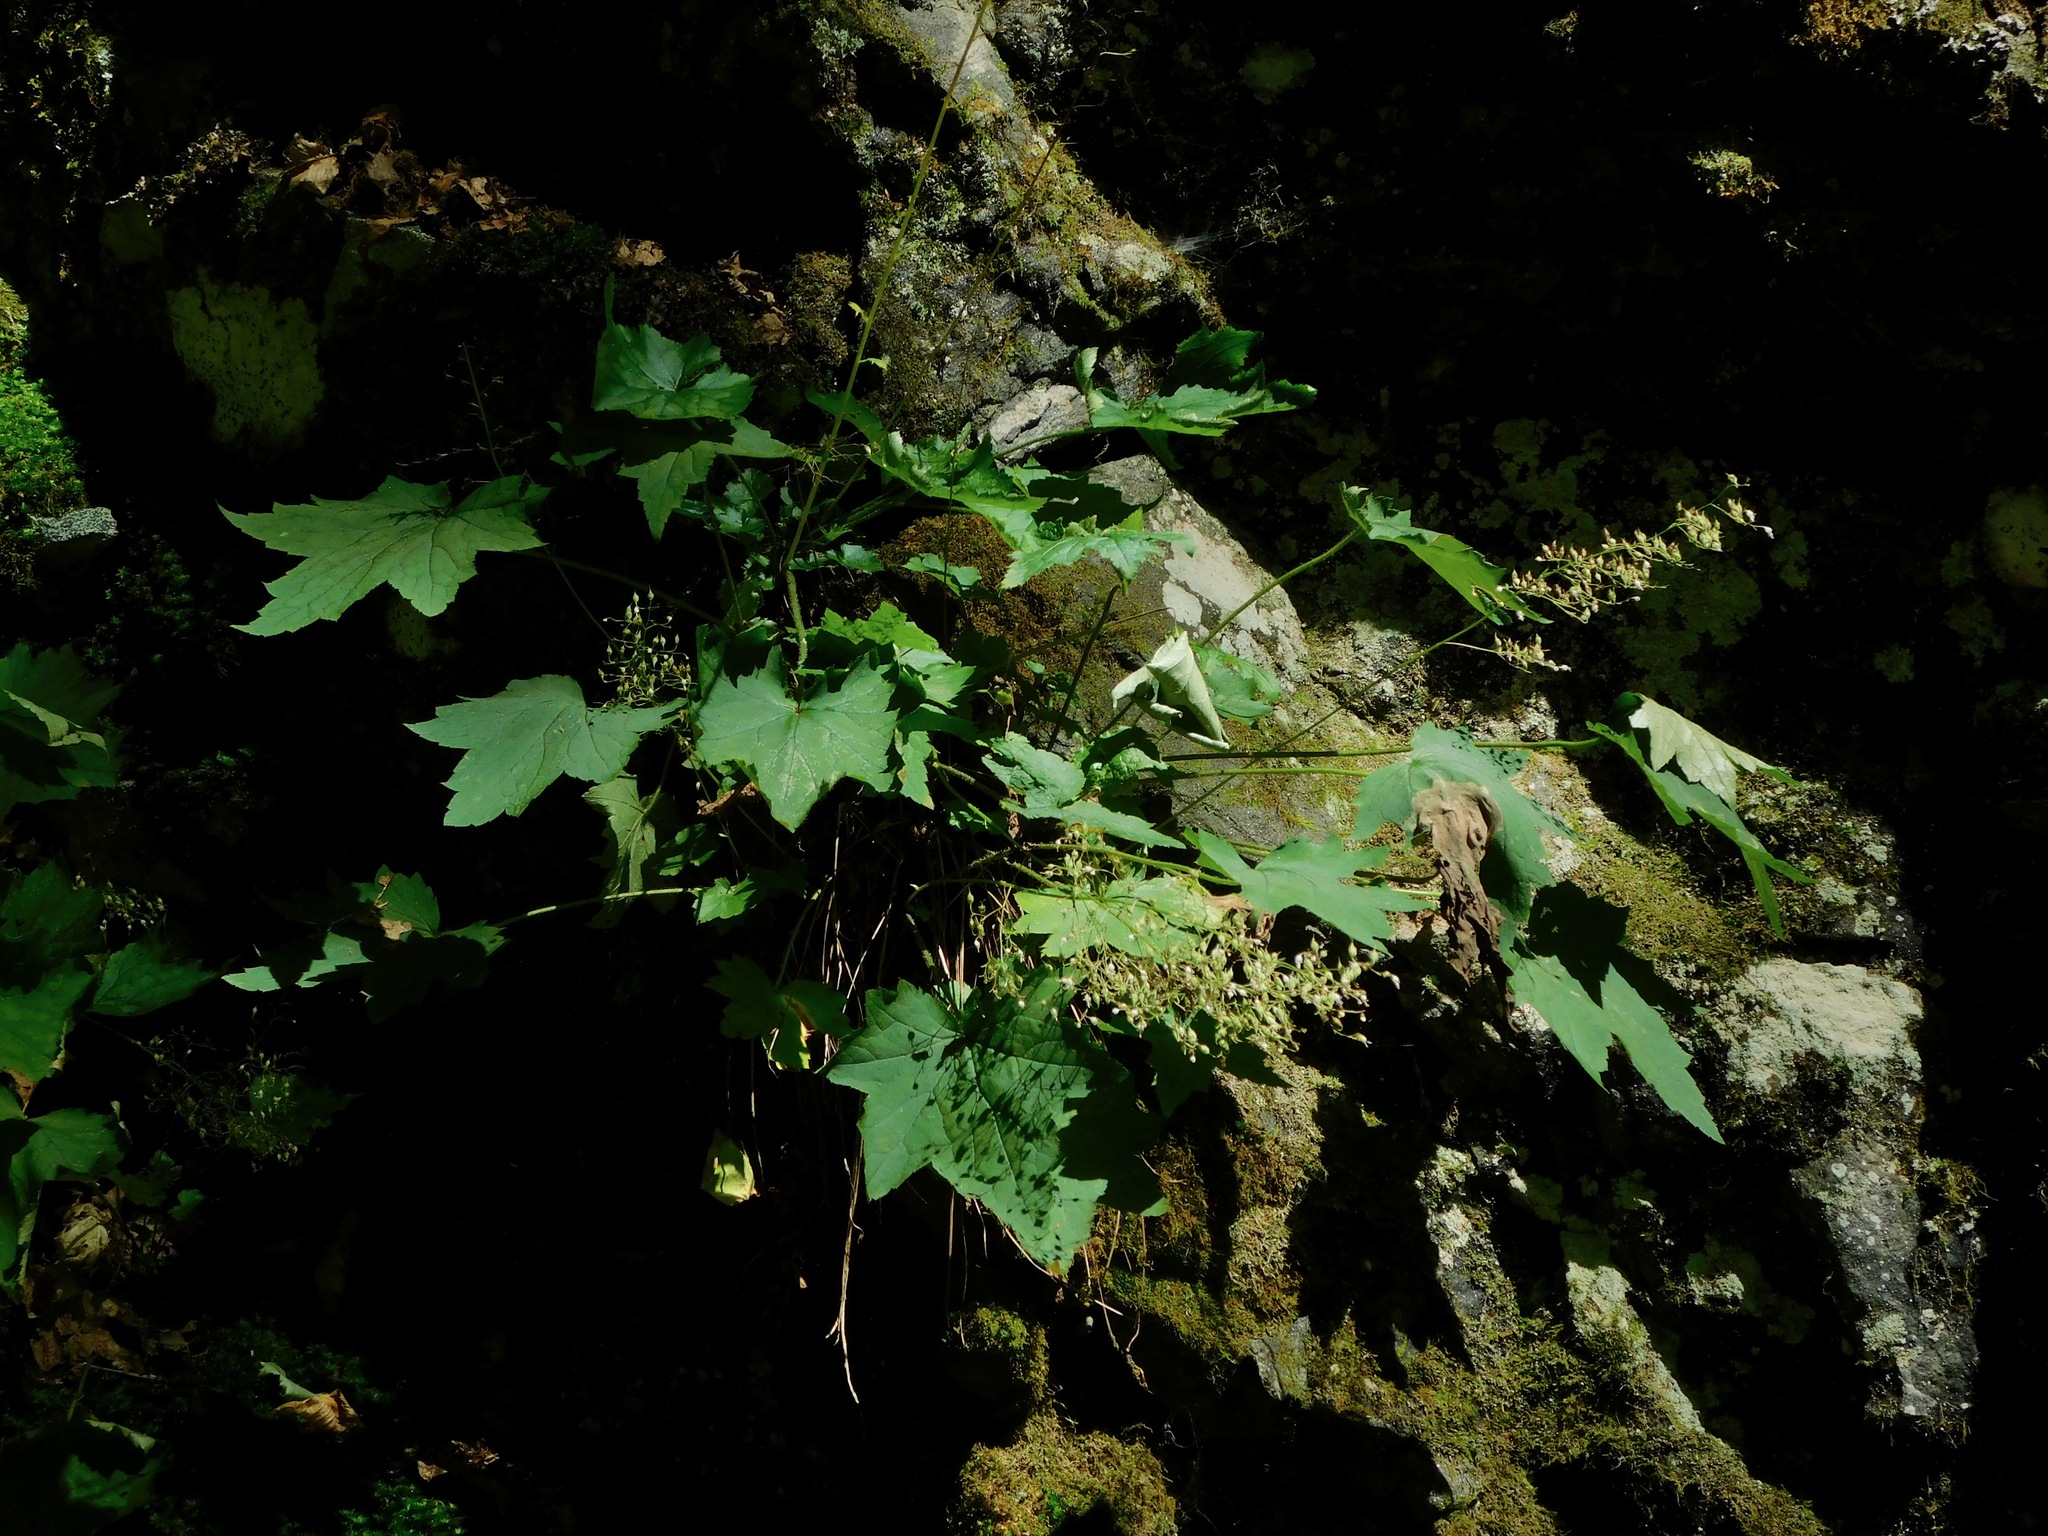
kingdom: Plantae
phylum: Tracheophyta
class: Magnoliopsida
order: Saxifragales
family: Saxifragaceae
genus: Heuchera
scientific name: Heuchera villosa
